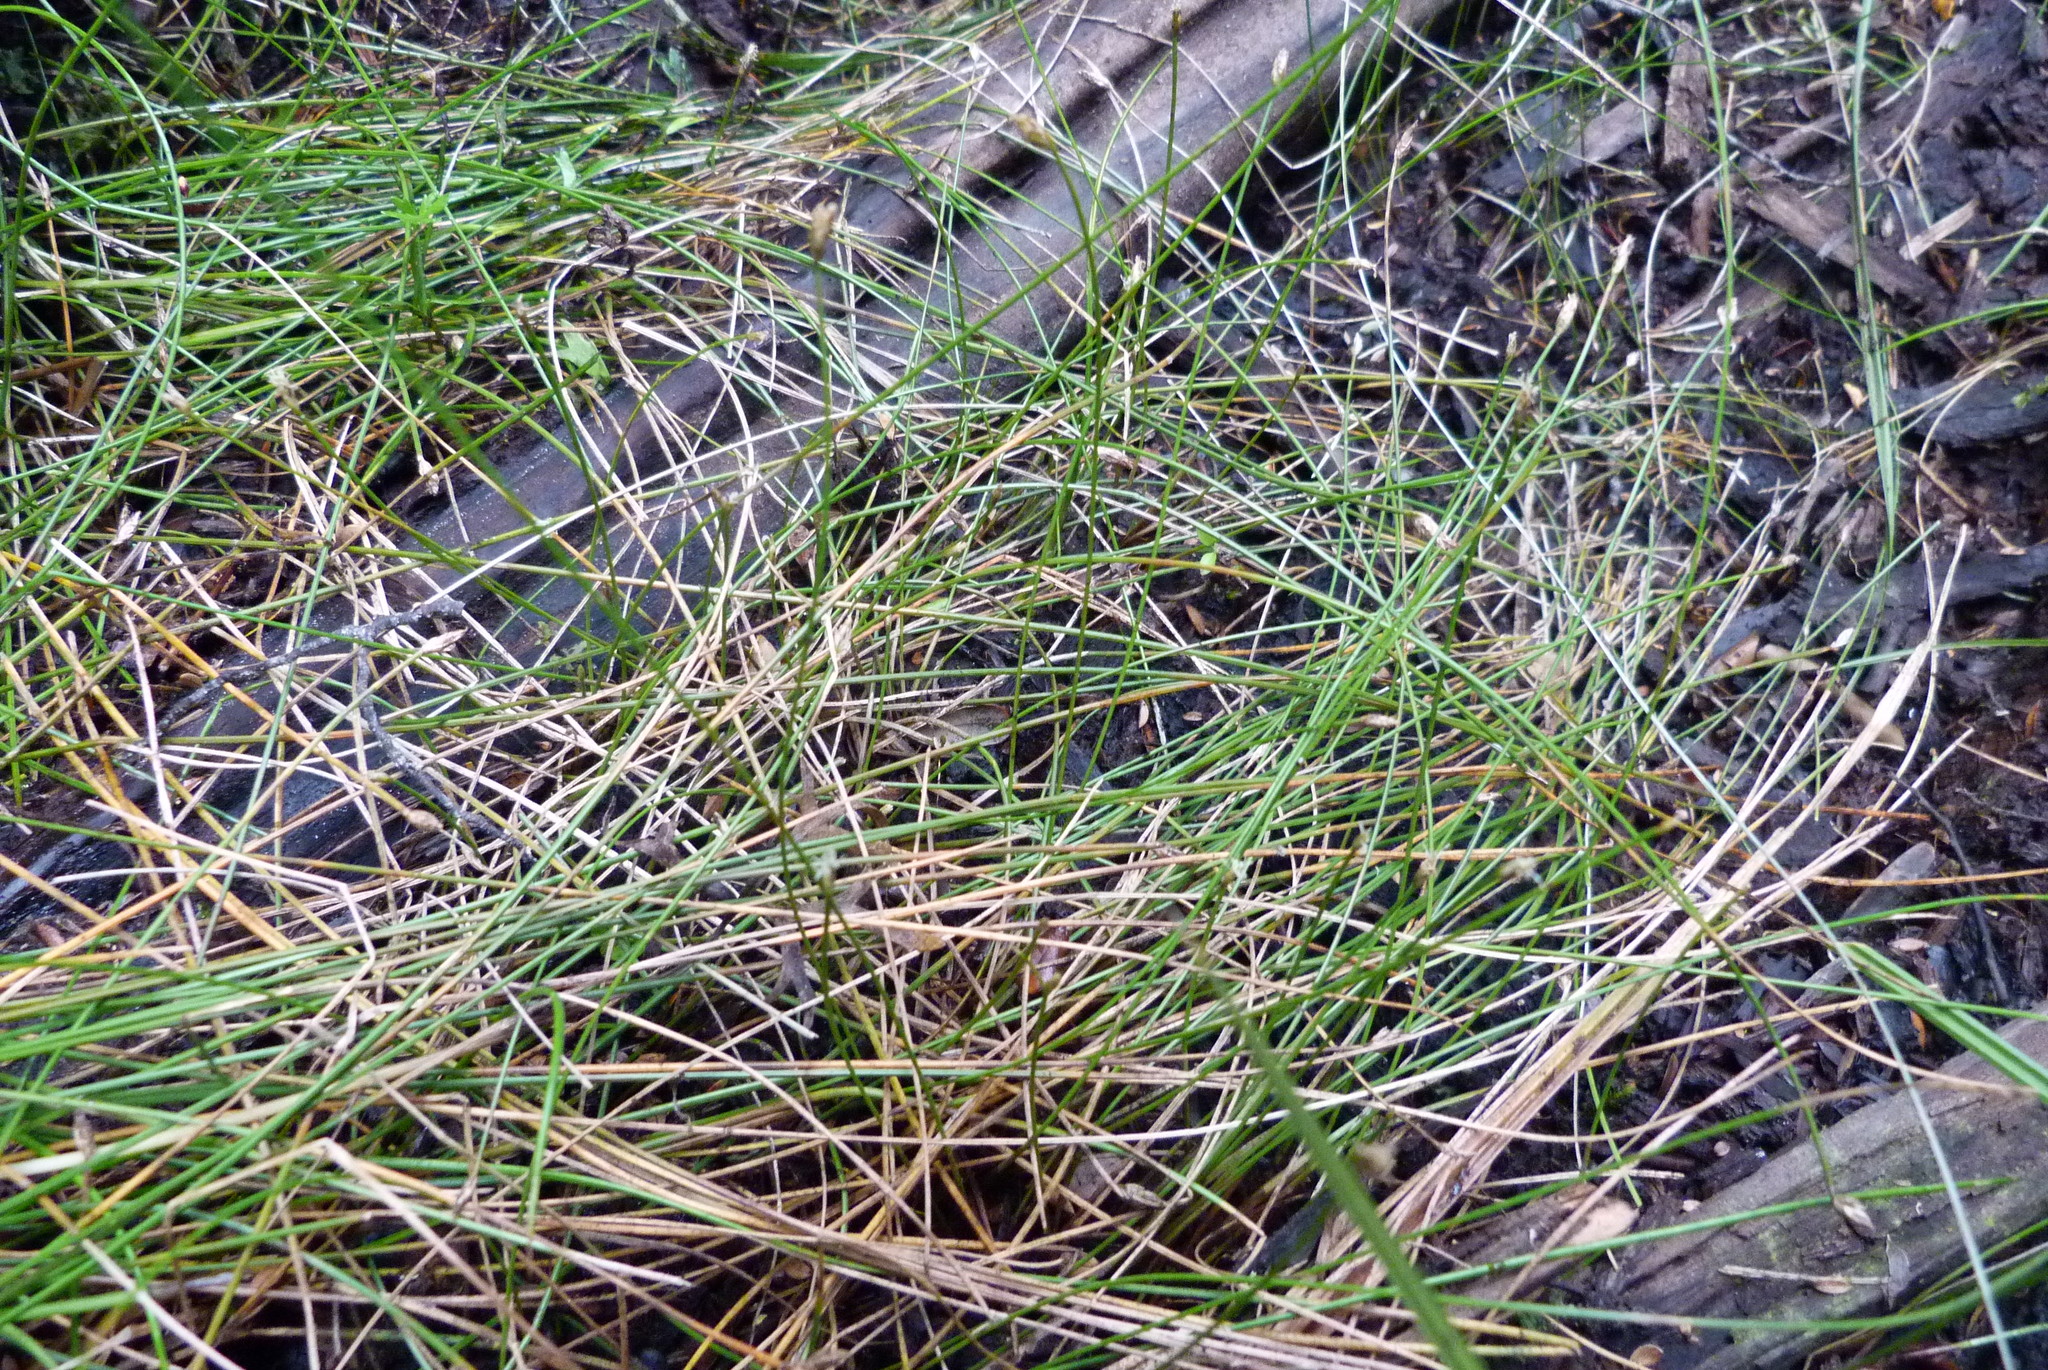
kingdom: Plantae
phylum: Tracheophyta
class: Liliopsida
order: Poales
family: Cyperaceae
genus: Eleocharis
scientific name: Eleocharis acuta
